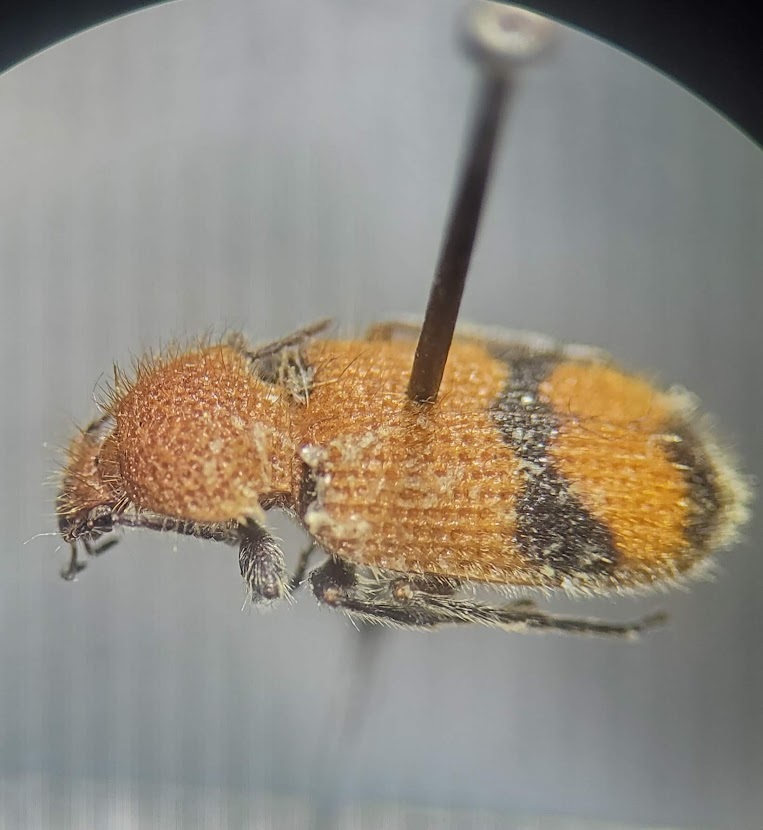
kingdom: Animalia
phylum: Arthropoda
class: Insecta
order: Coleoptera
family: Carabidae
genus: Panagaeus
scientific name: Panagaeus fasciatus
